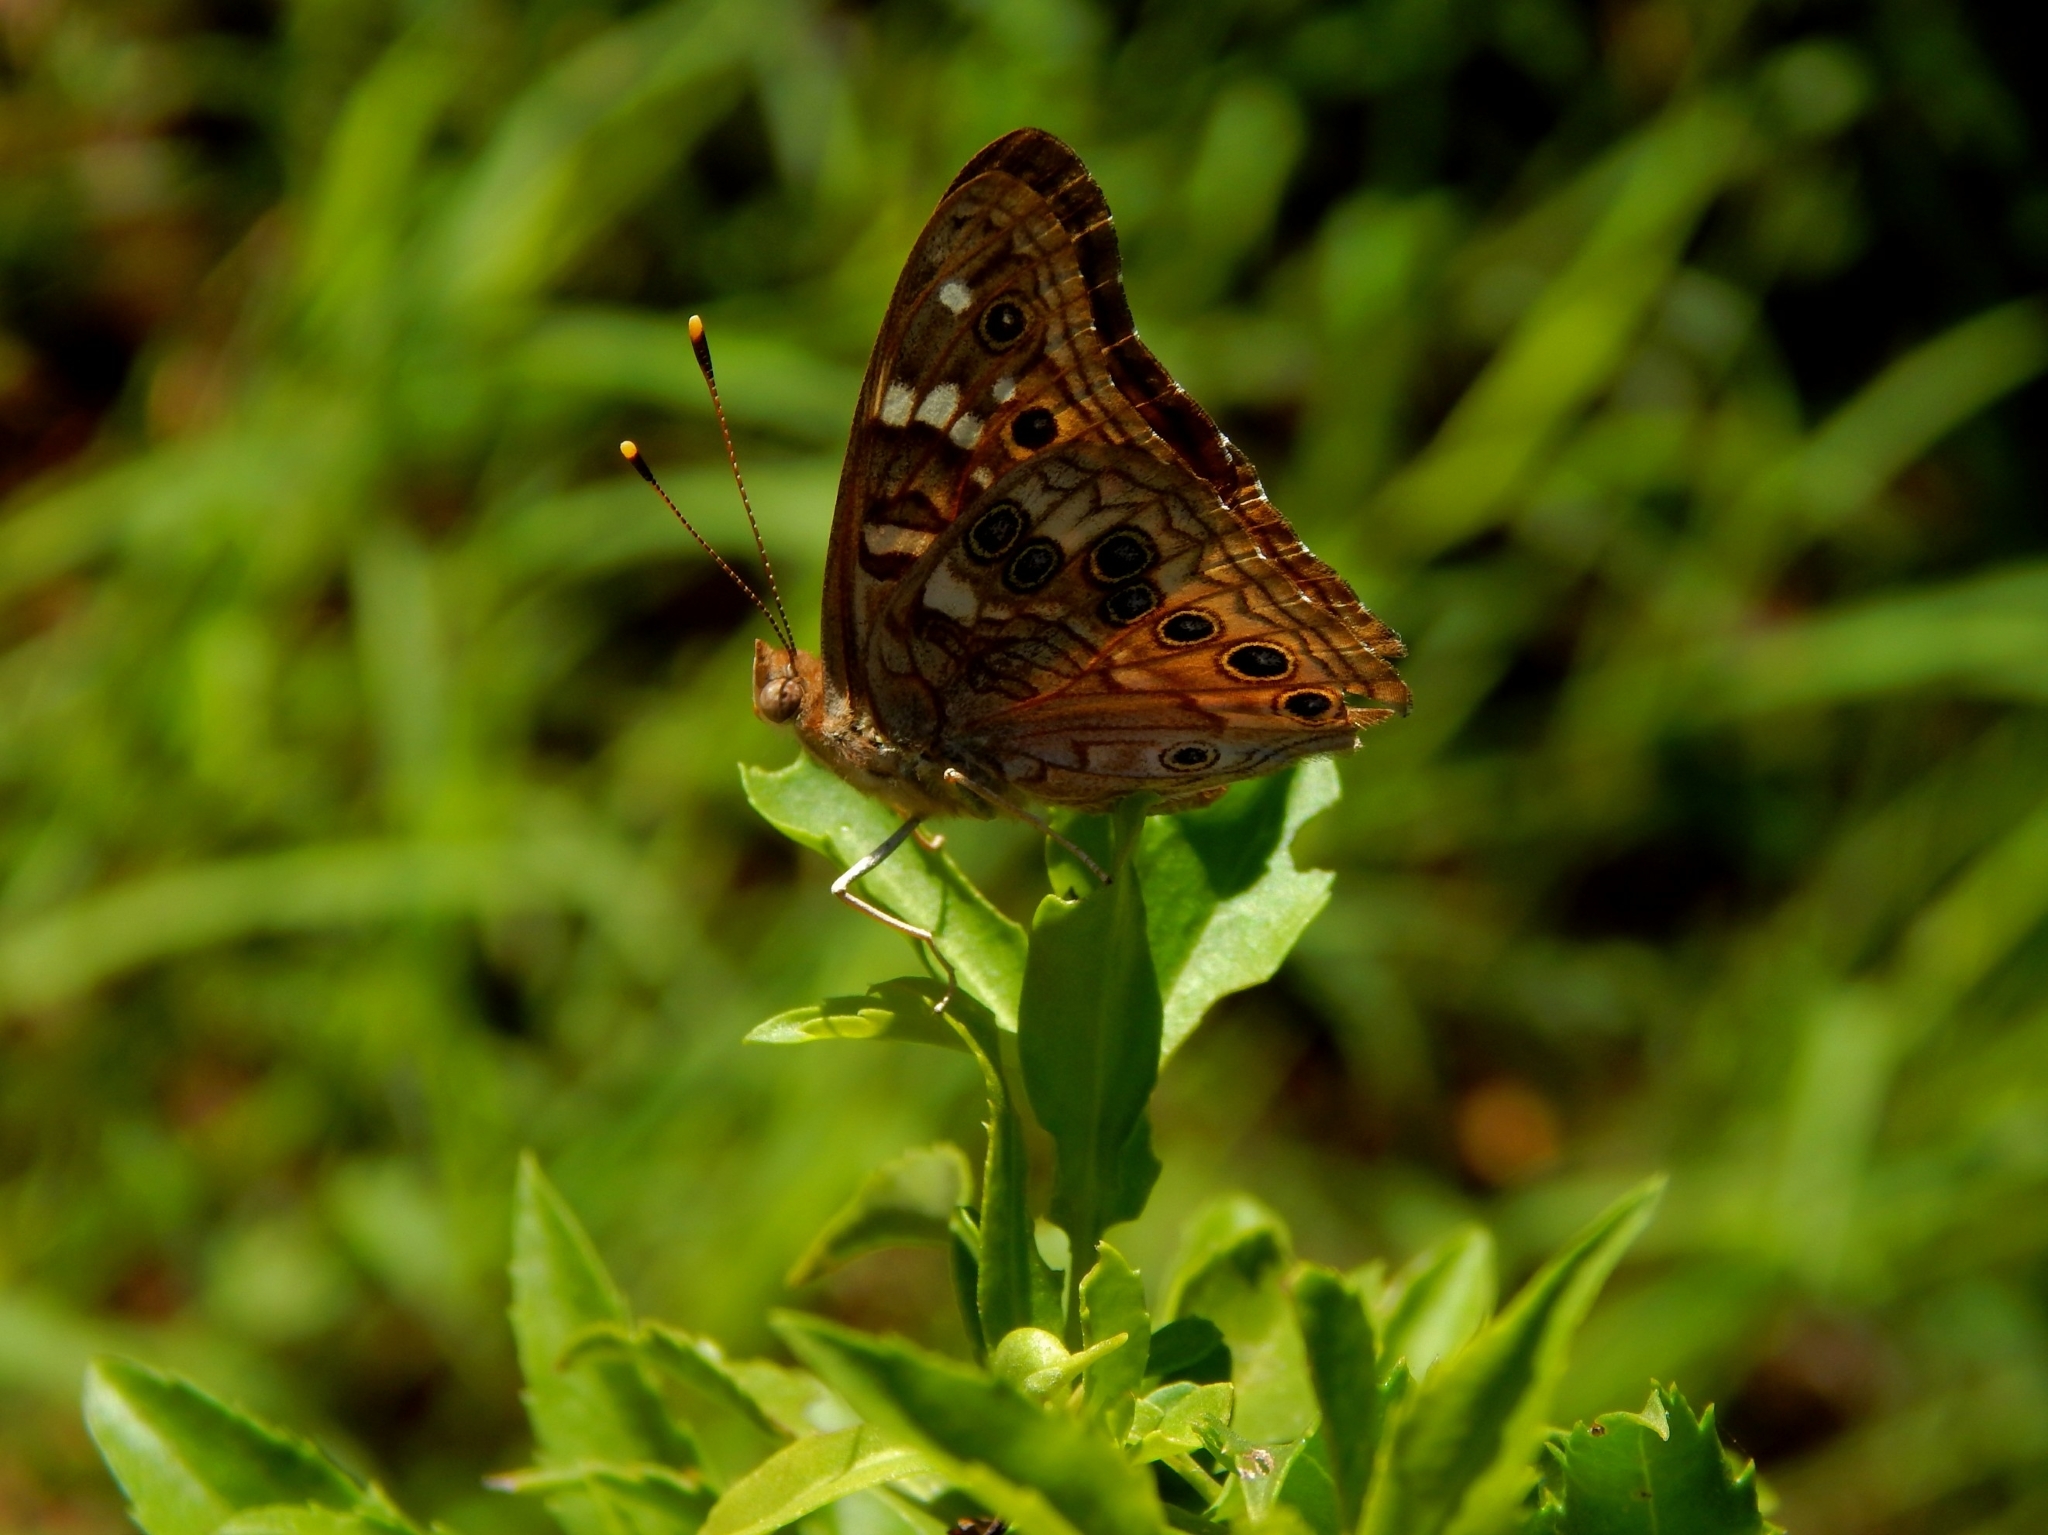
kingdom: Animalia
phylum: Arthropoda
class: Insecta
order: Lepidoptera
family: Nymphalidae
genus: Asterocampa
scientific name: Asterocampa leilia
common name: Empress leilia
